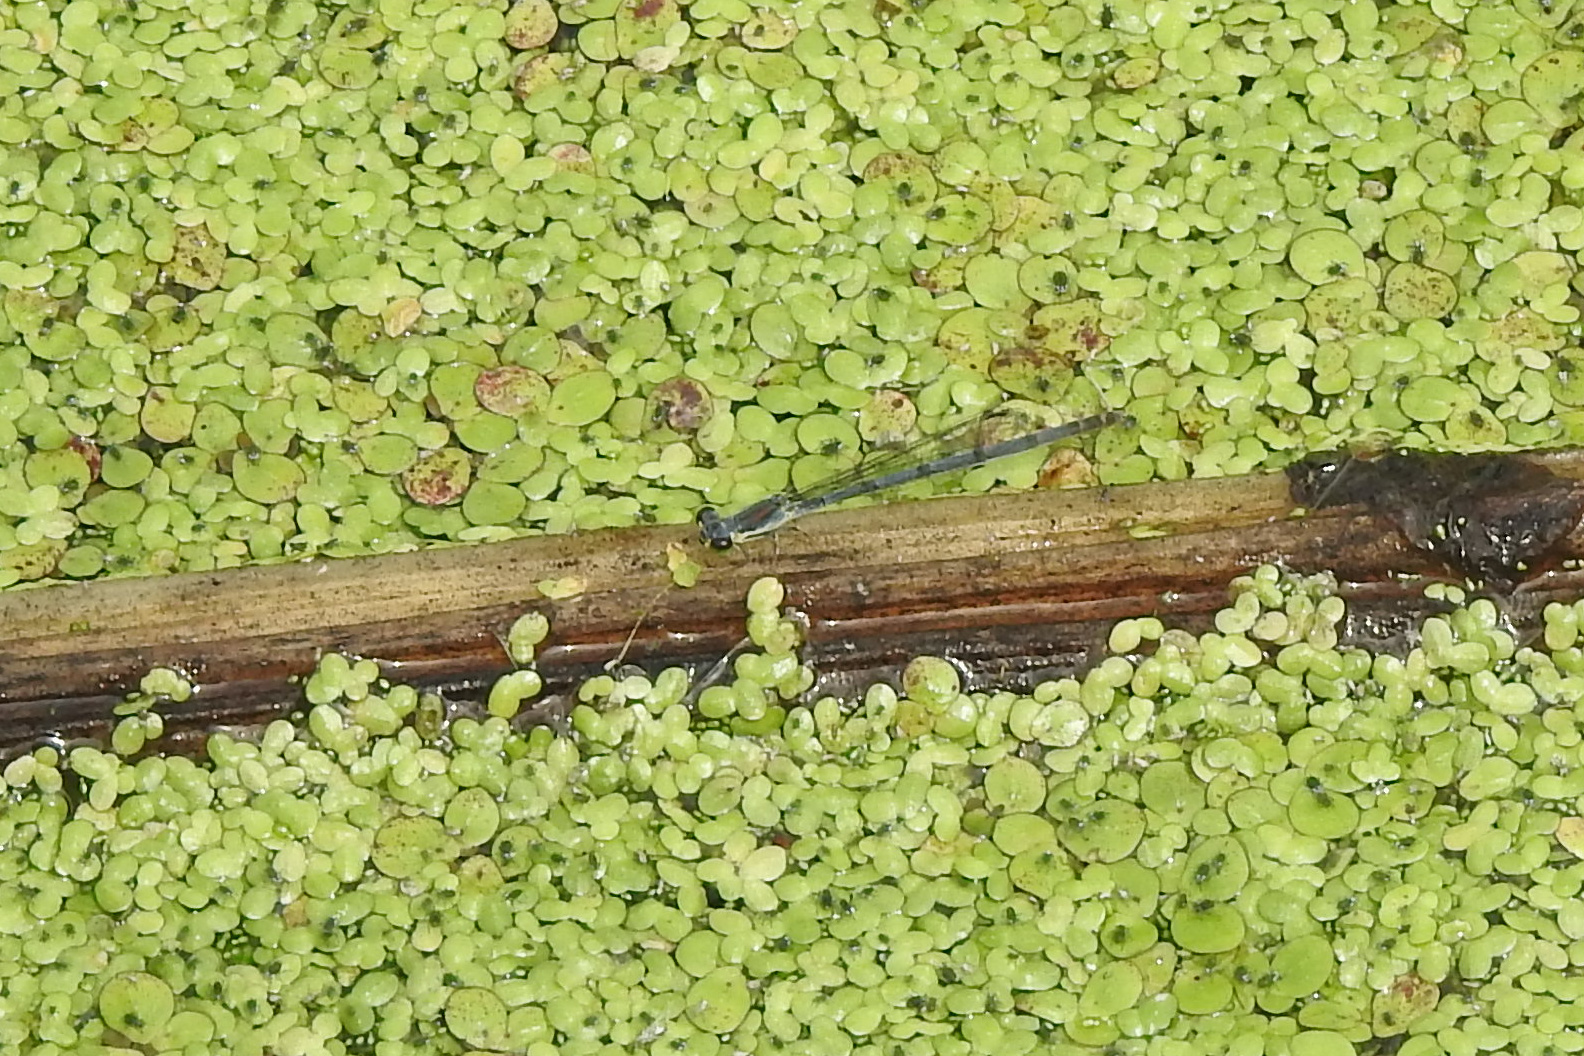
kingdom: Animalia
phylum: Arthropoda
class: Insecta
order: Odonata
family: Coenagrionidae
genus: Ischnura
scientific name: Ischnura posita
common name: Fragile forktail
